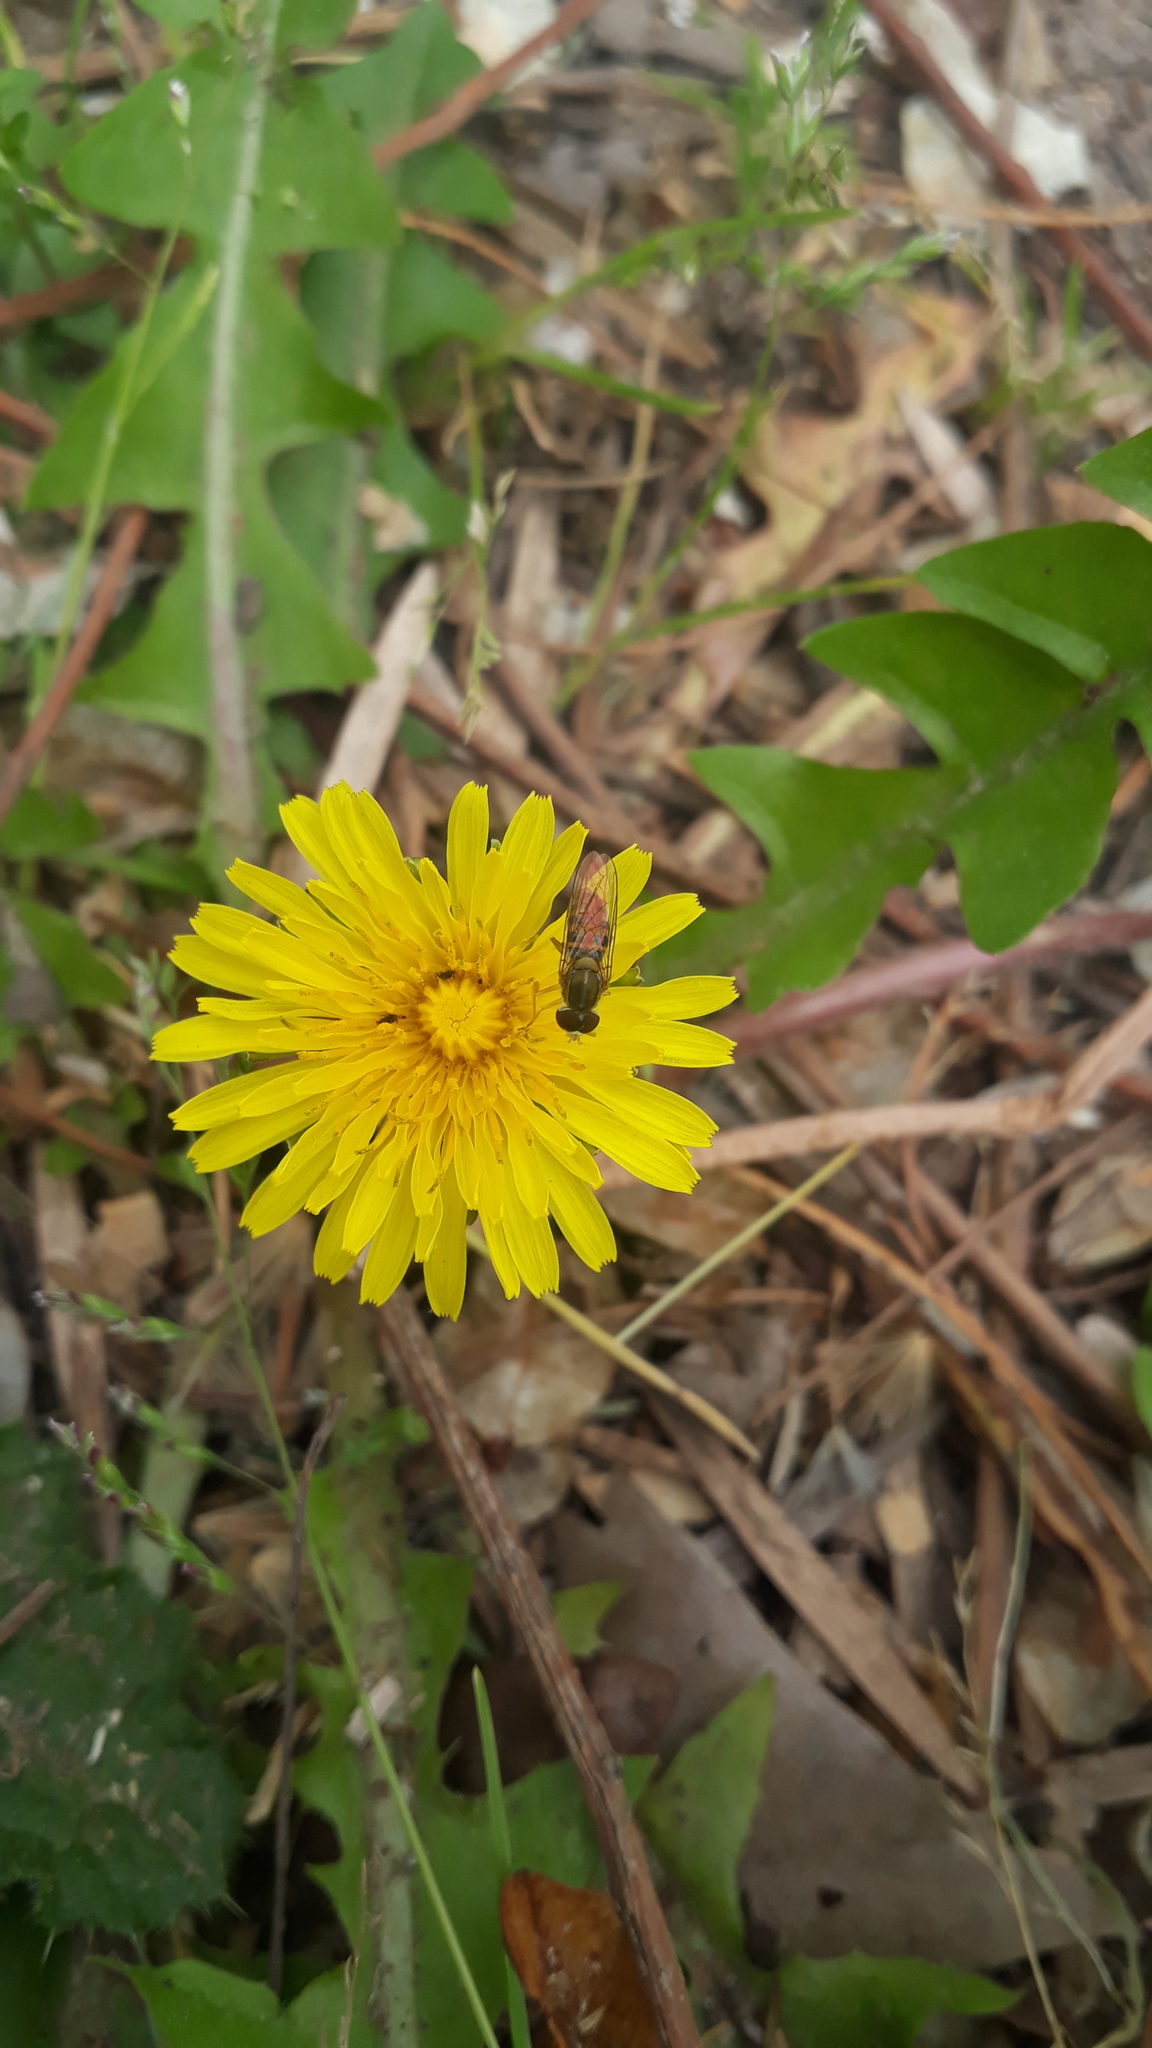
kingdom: Animalia
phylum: Arthropoda
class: Insecta
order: Diptera
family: Syrphidae
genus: Toxomerus
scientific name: Toxomerus
